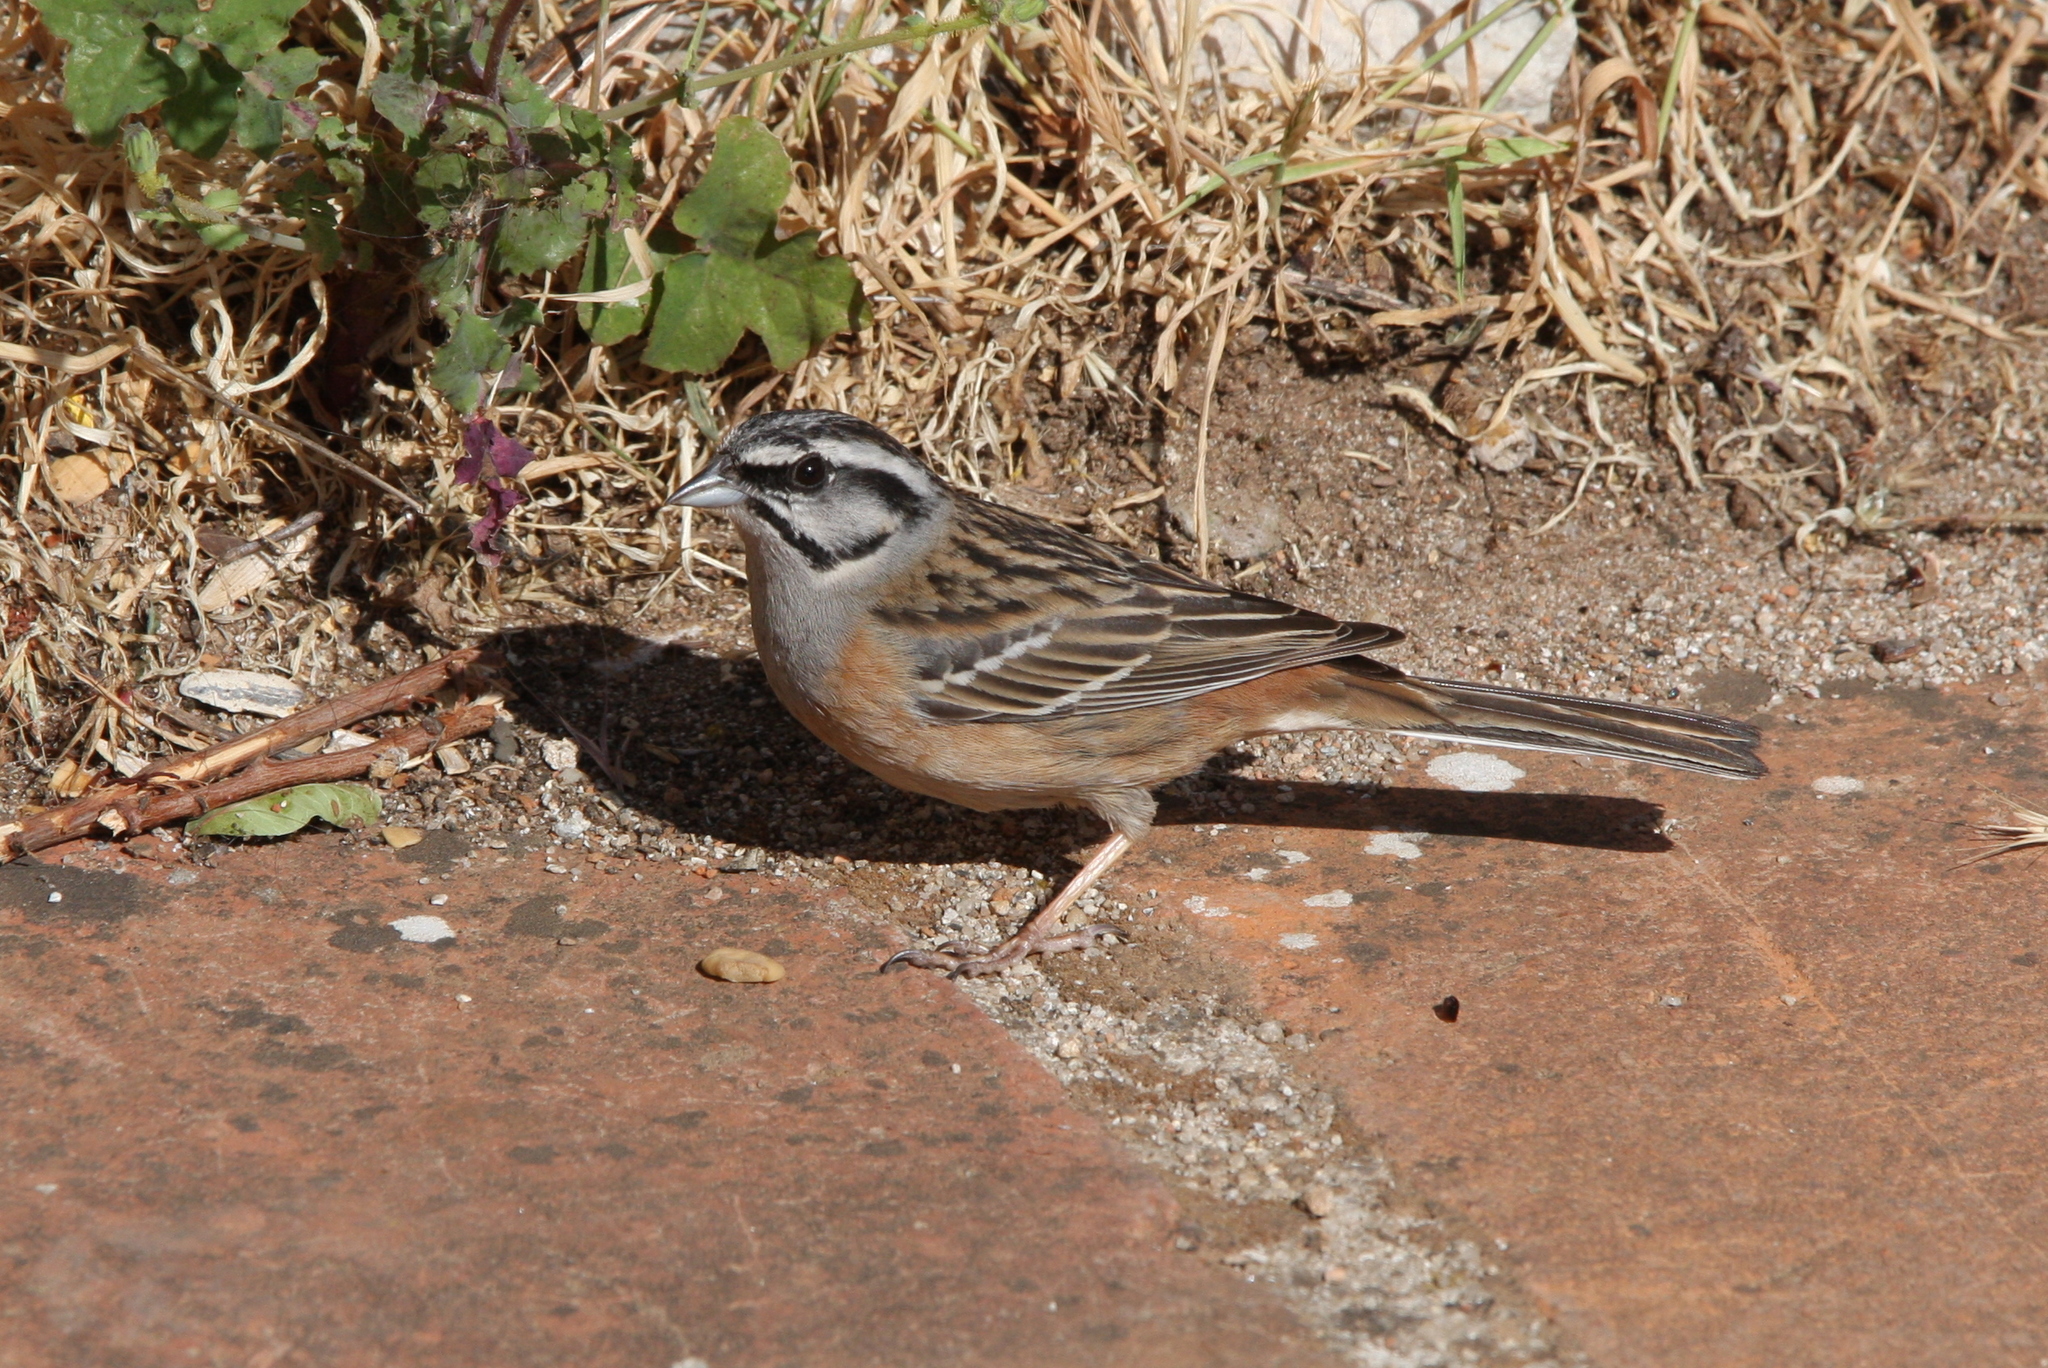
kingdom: Animalia
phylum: Chordata
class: Aves
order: Passeriformes
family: Emberizidae
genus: Emberiza
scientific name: Emberiza cia
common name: Rock bunting
